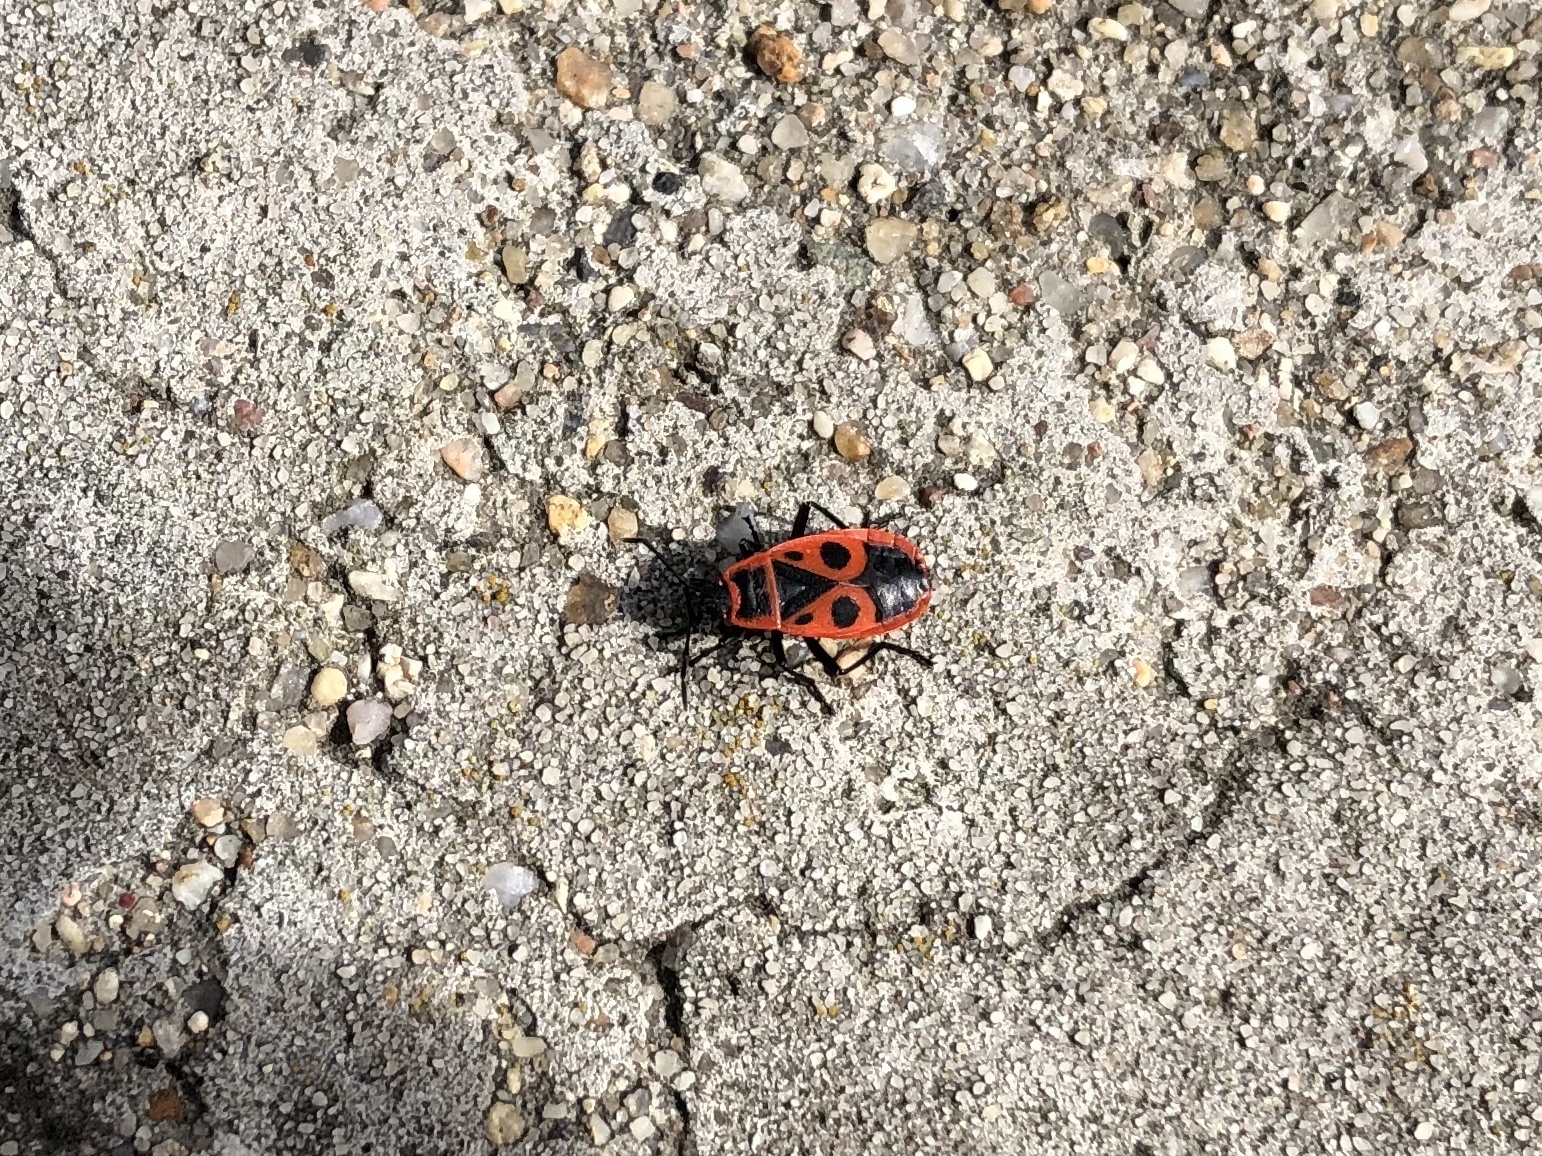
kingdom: Animalia
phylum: Arthropoda
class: Insecta
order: Hemiptera
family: Pyrrhocoridae
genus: Pyrrhocoris
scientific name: Pyrrhocoris apterus
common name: Firebug
